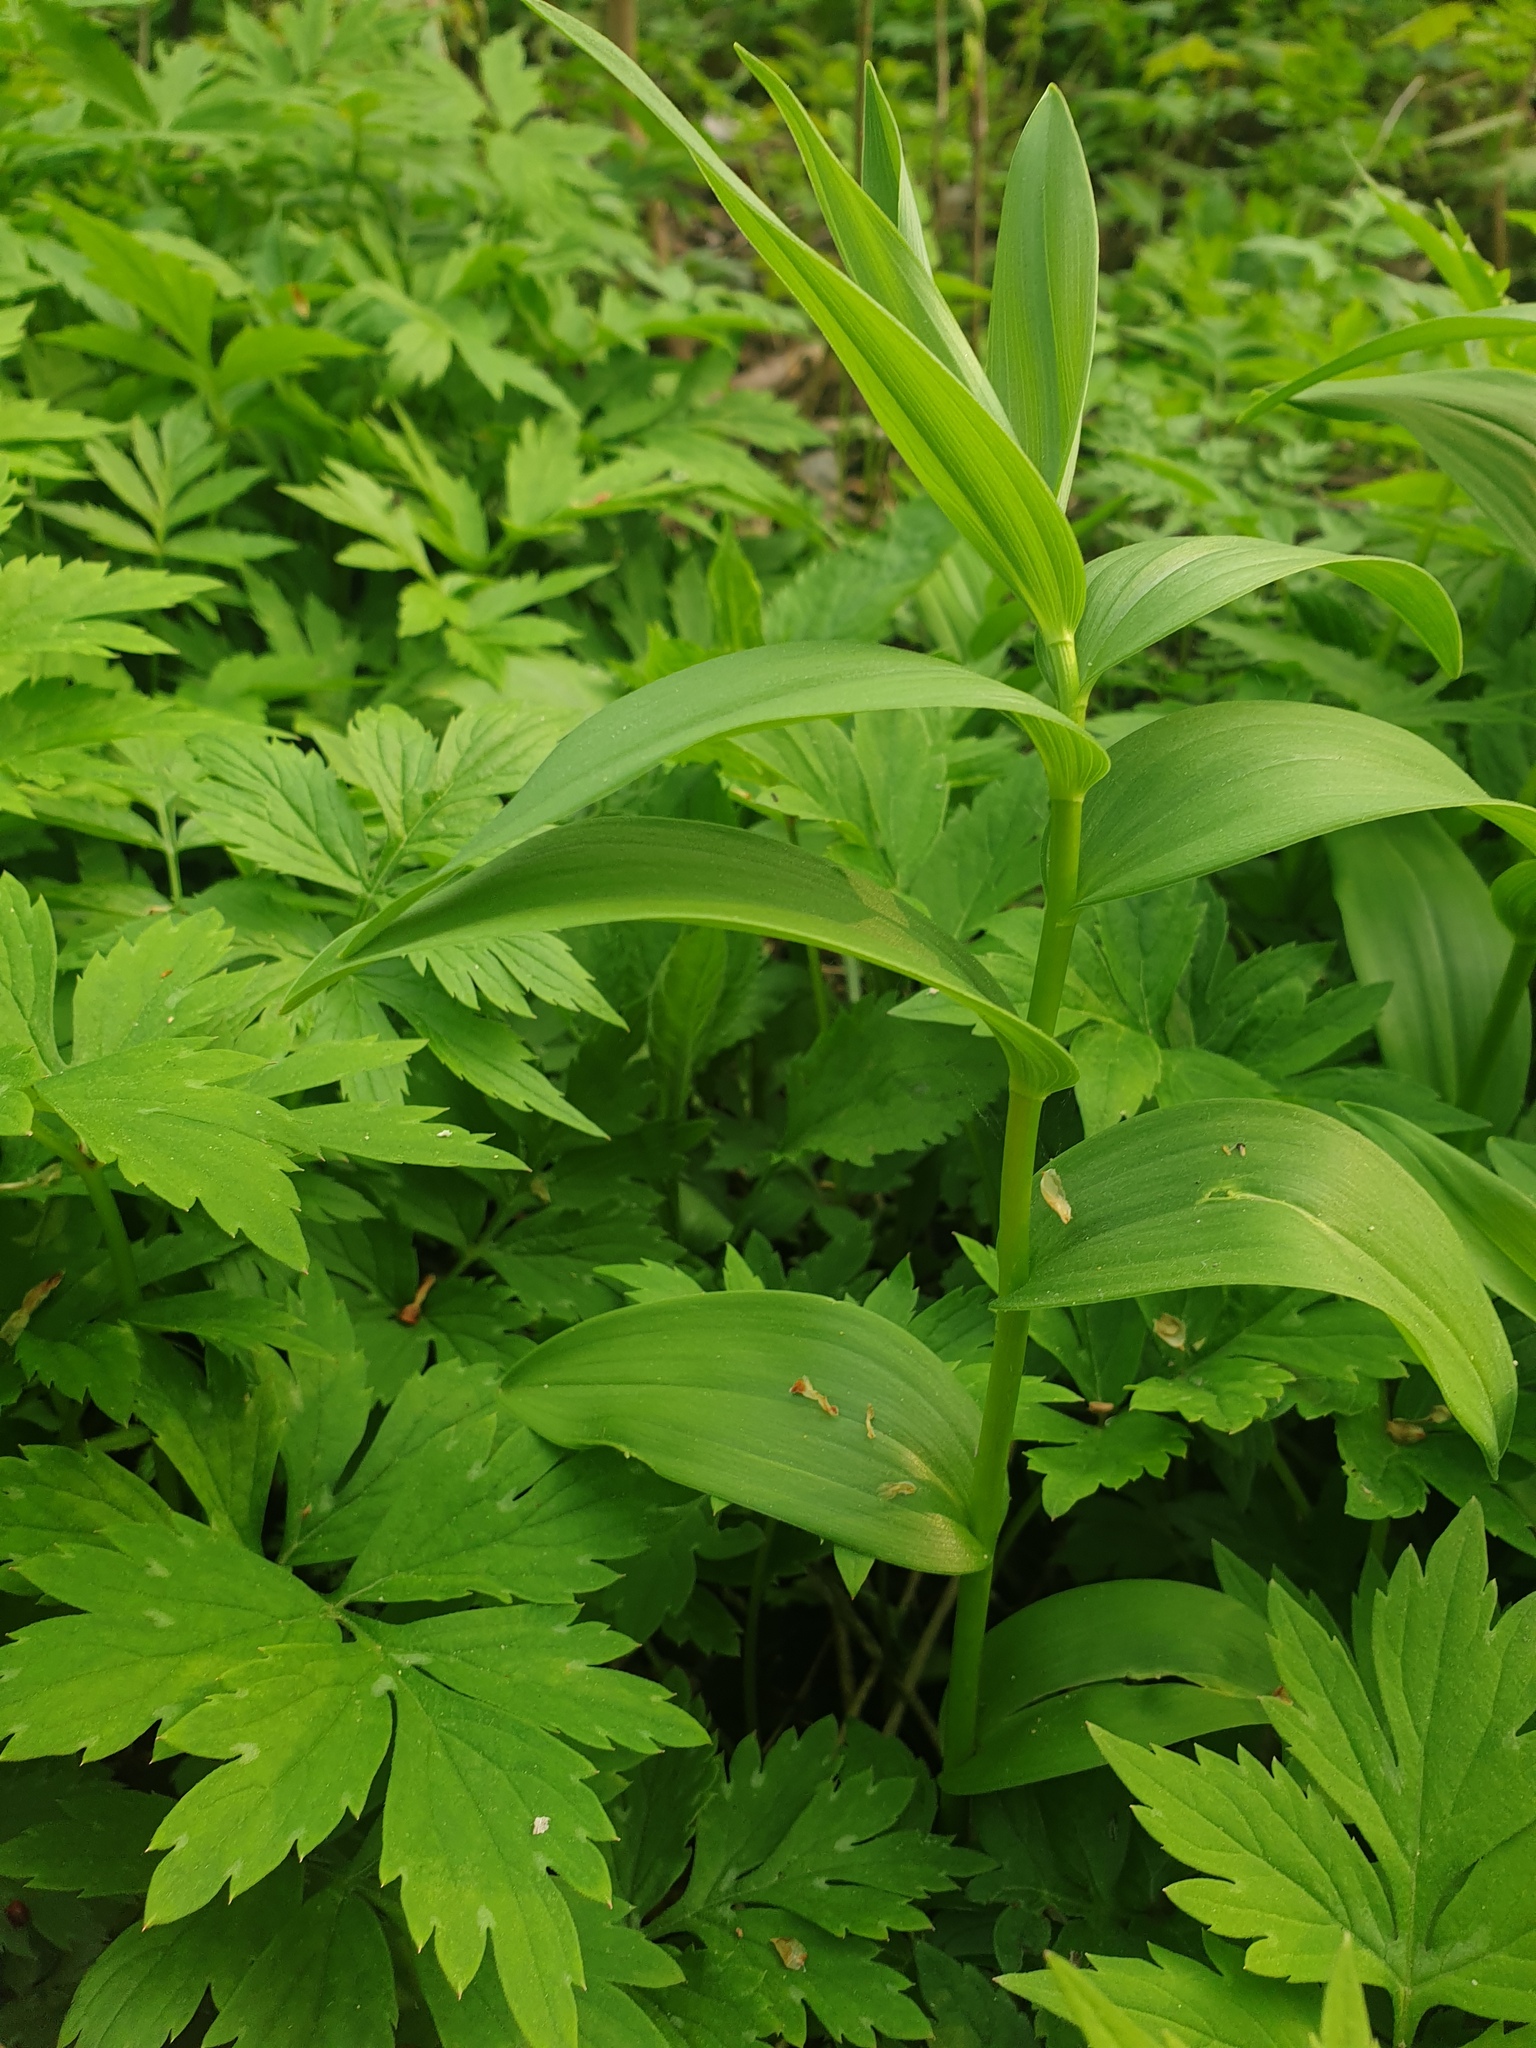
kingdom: Plantae
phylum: Tracheophyta
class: Liliopsida
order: Asparagales
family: Asparagaceae
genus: Maianthemum
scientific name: Maianthemum stellatum
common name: Little false solomon's seal
